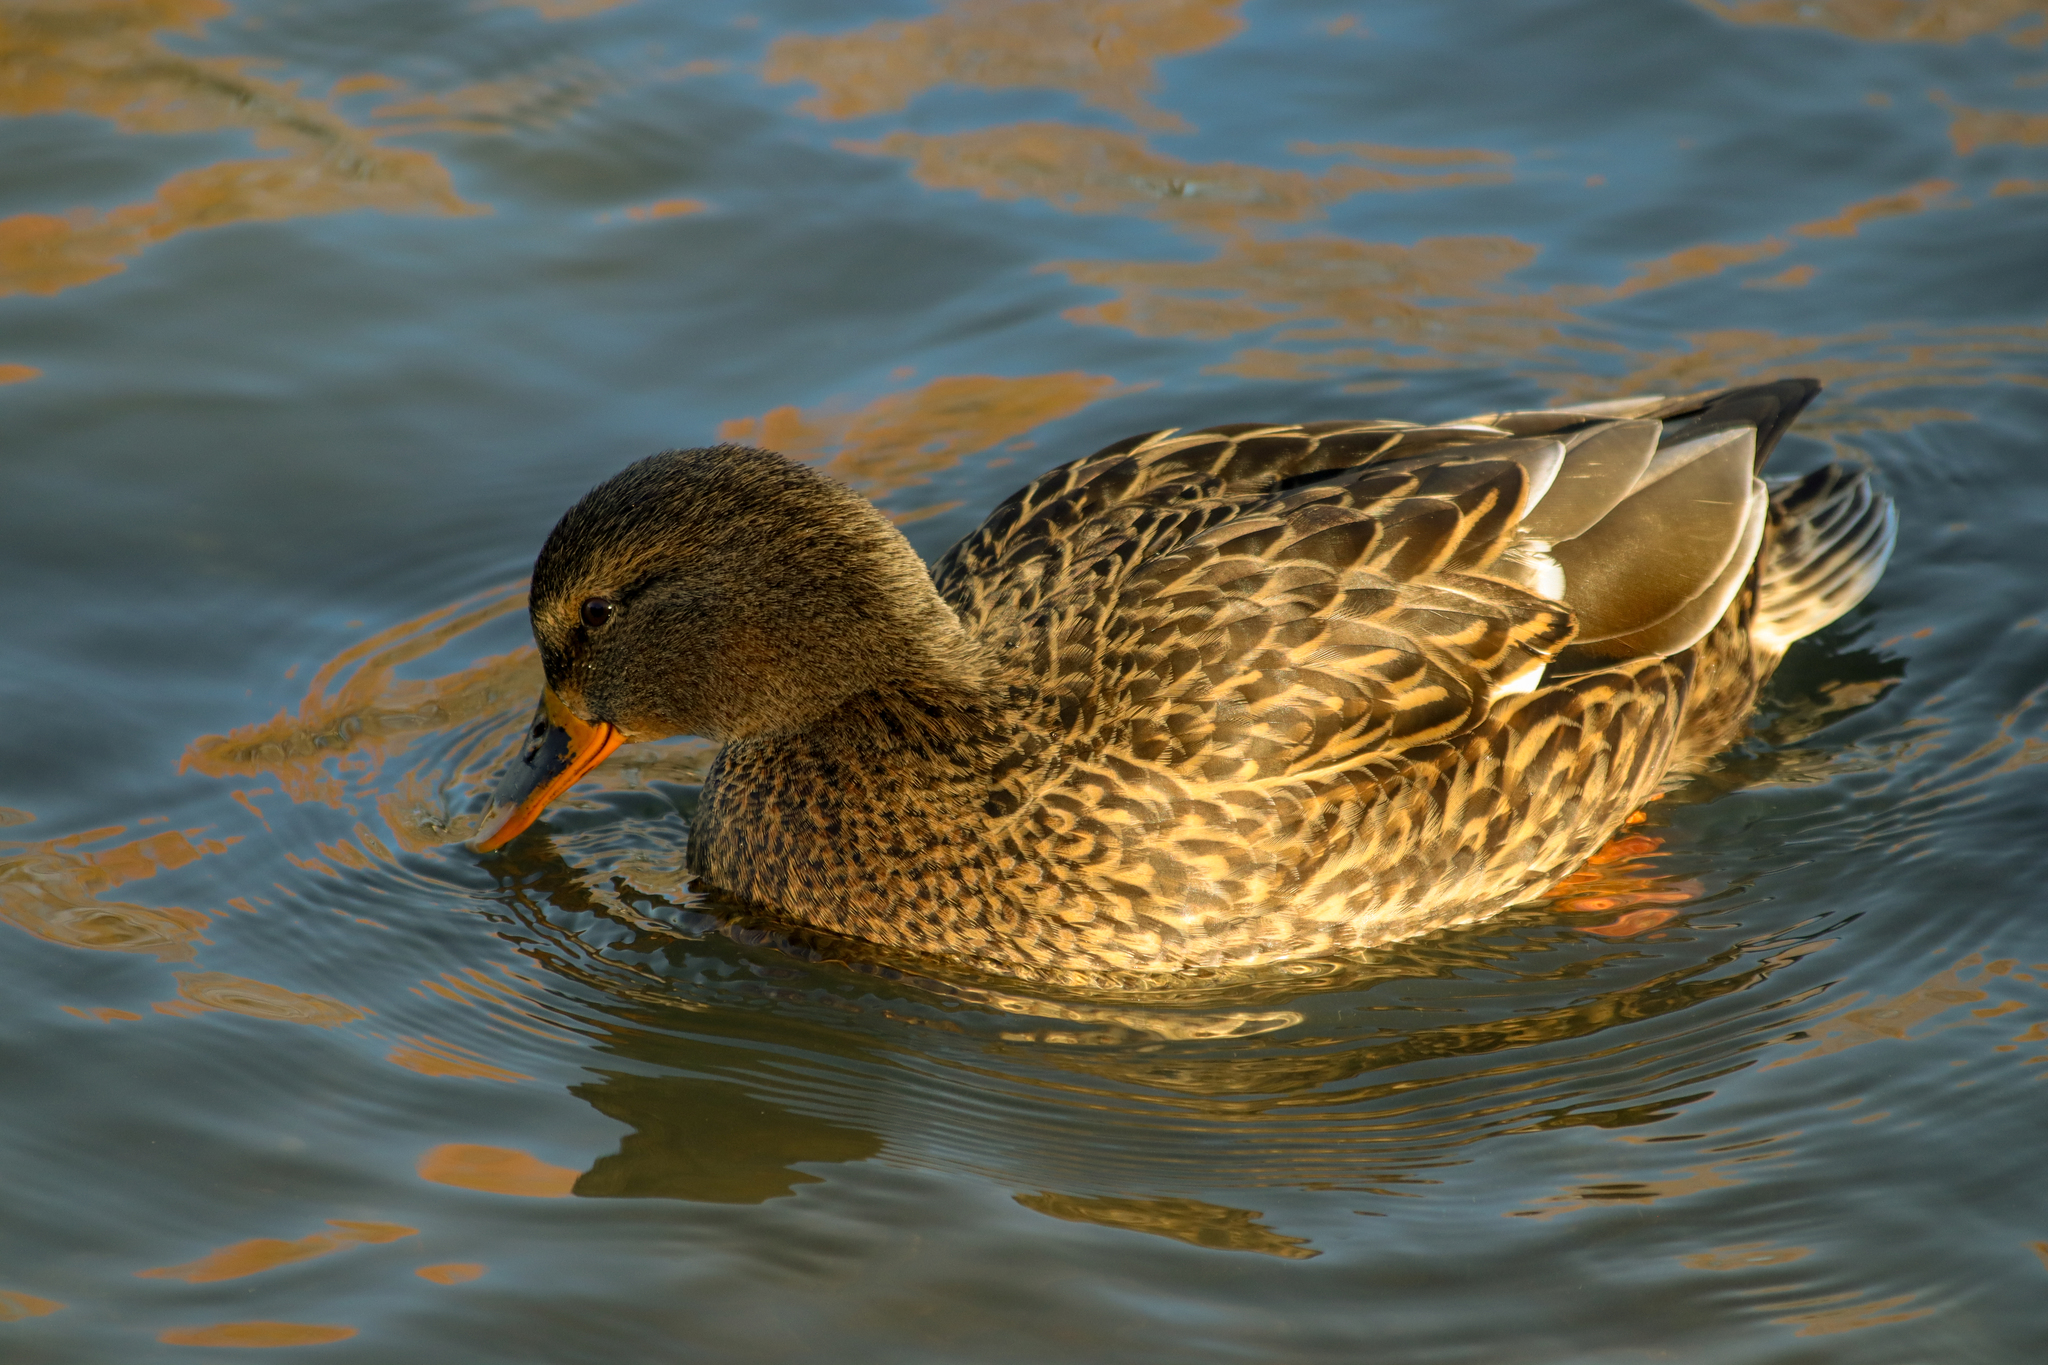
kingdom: Animalia
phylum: Chordata
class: Aves
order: Anseriformes
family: Anatidae
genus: Anas
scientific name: Anas platyrhynchos
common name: Mallard
